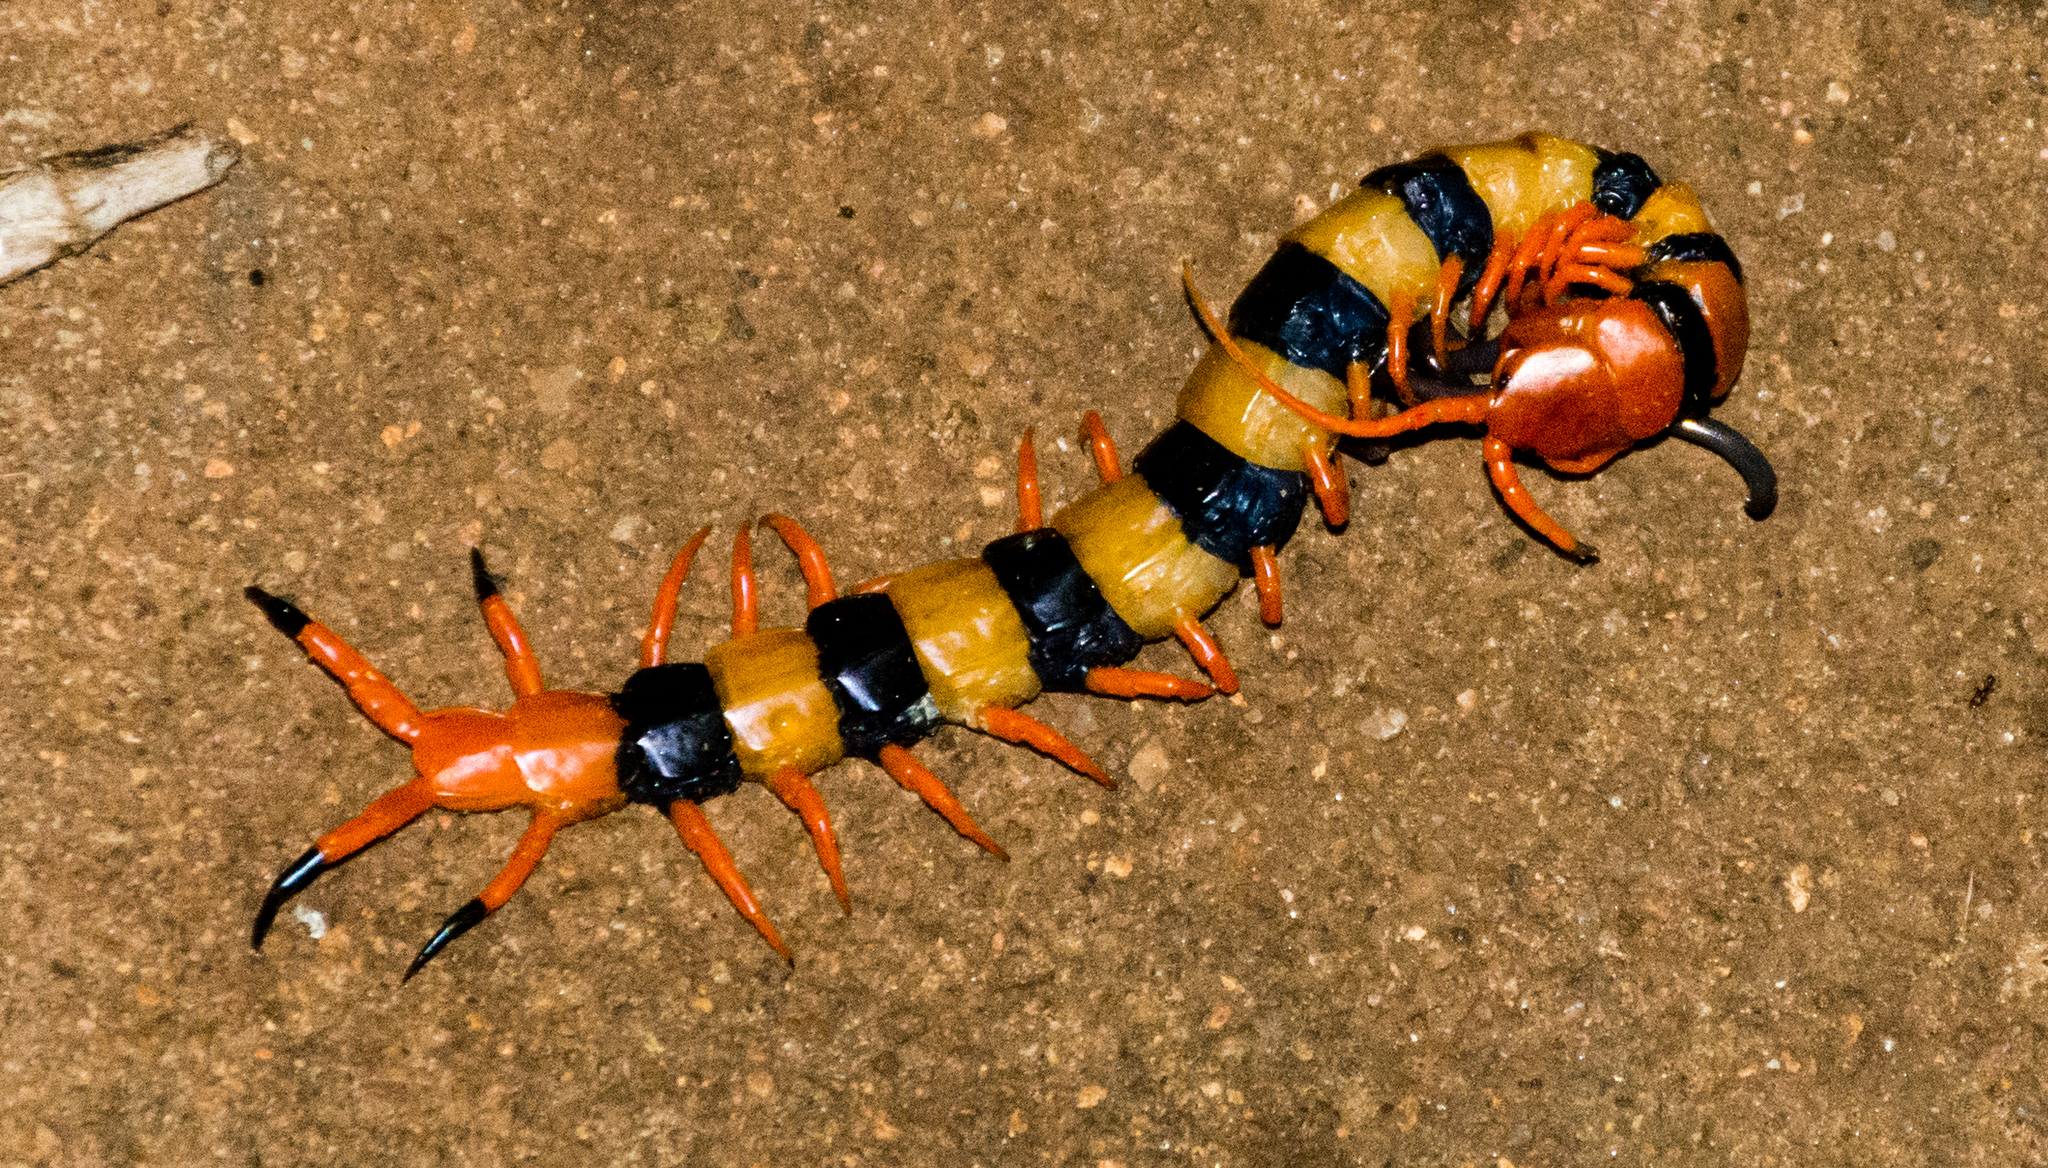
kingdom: Animalia
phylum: Arthropoda
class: Chilopoda
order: Scolopendromorpha
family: Scolopendridae
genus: Scolopendra
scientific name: Scolopendra hardwickei
